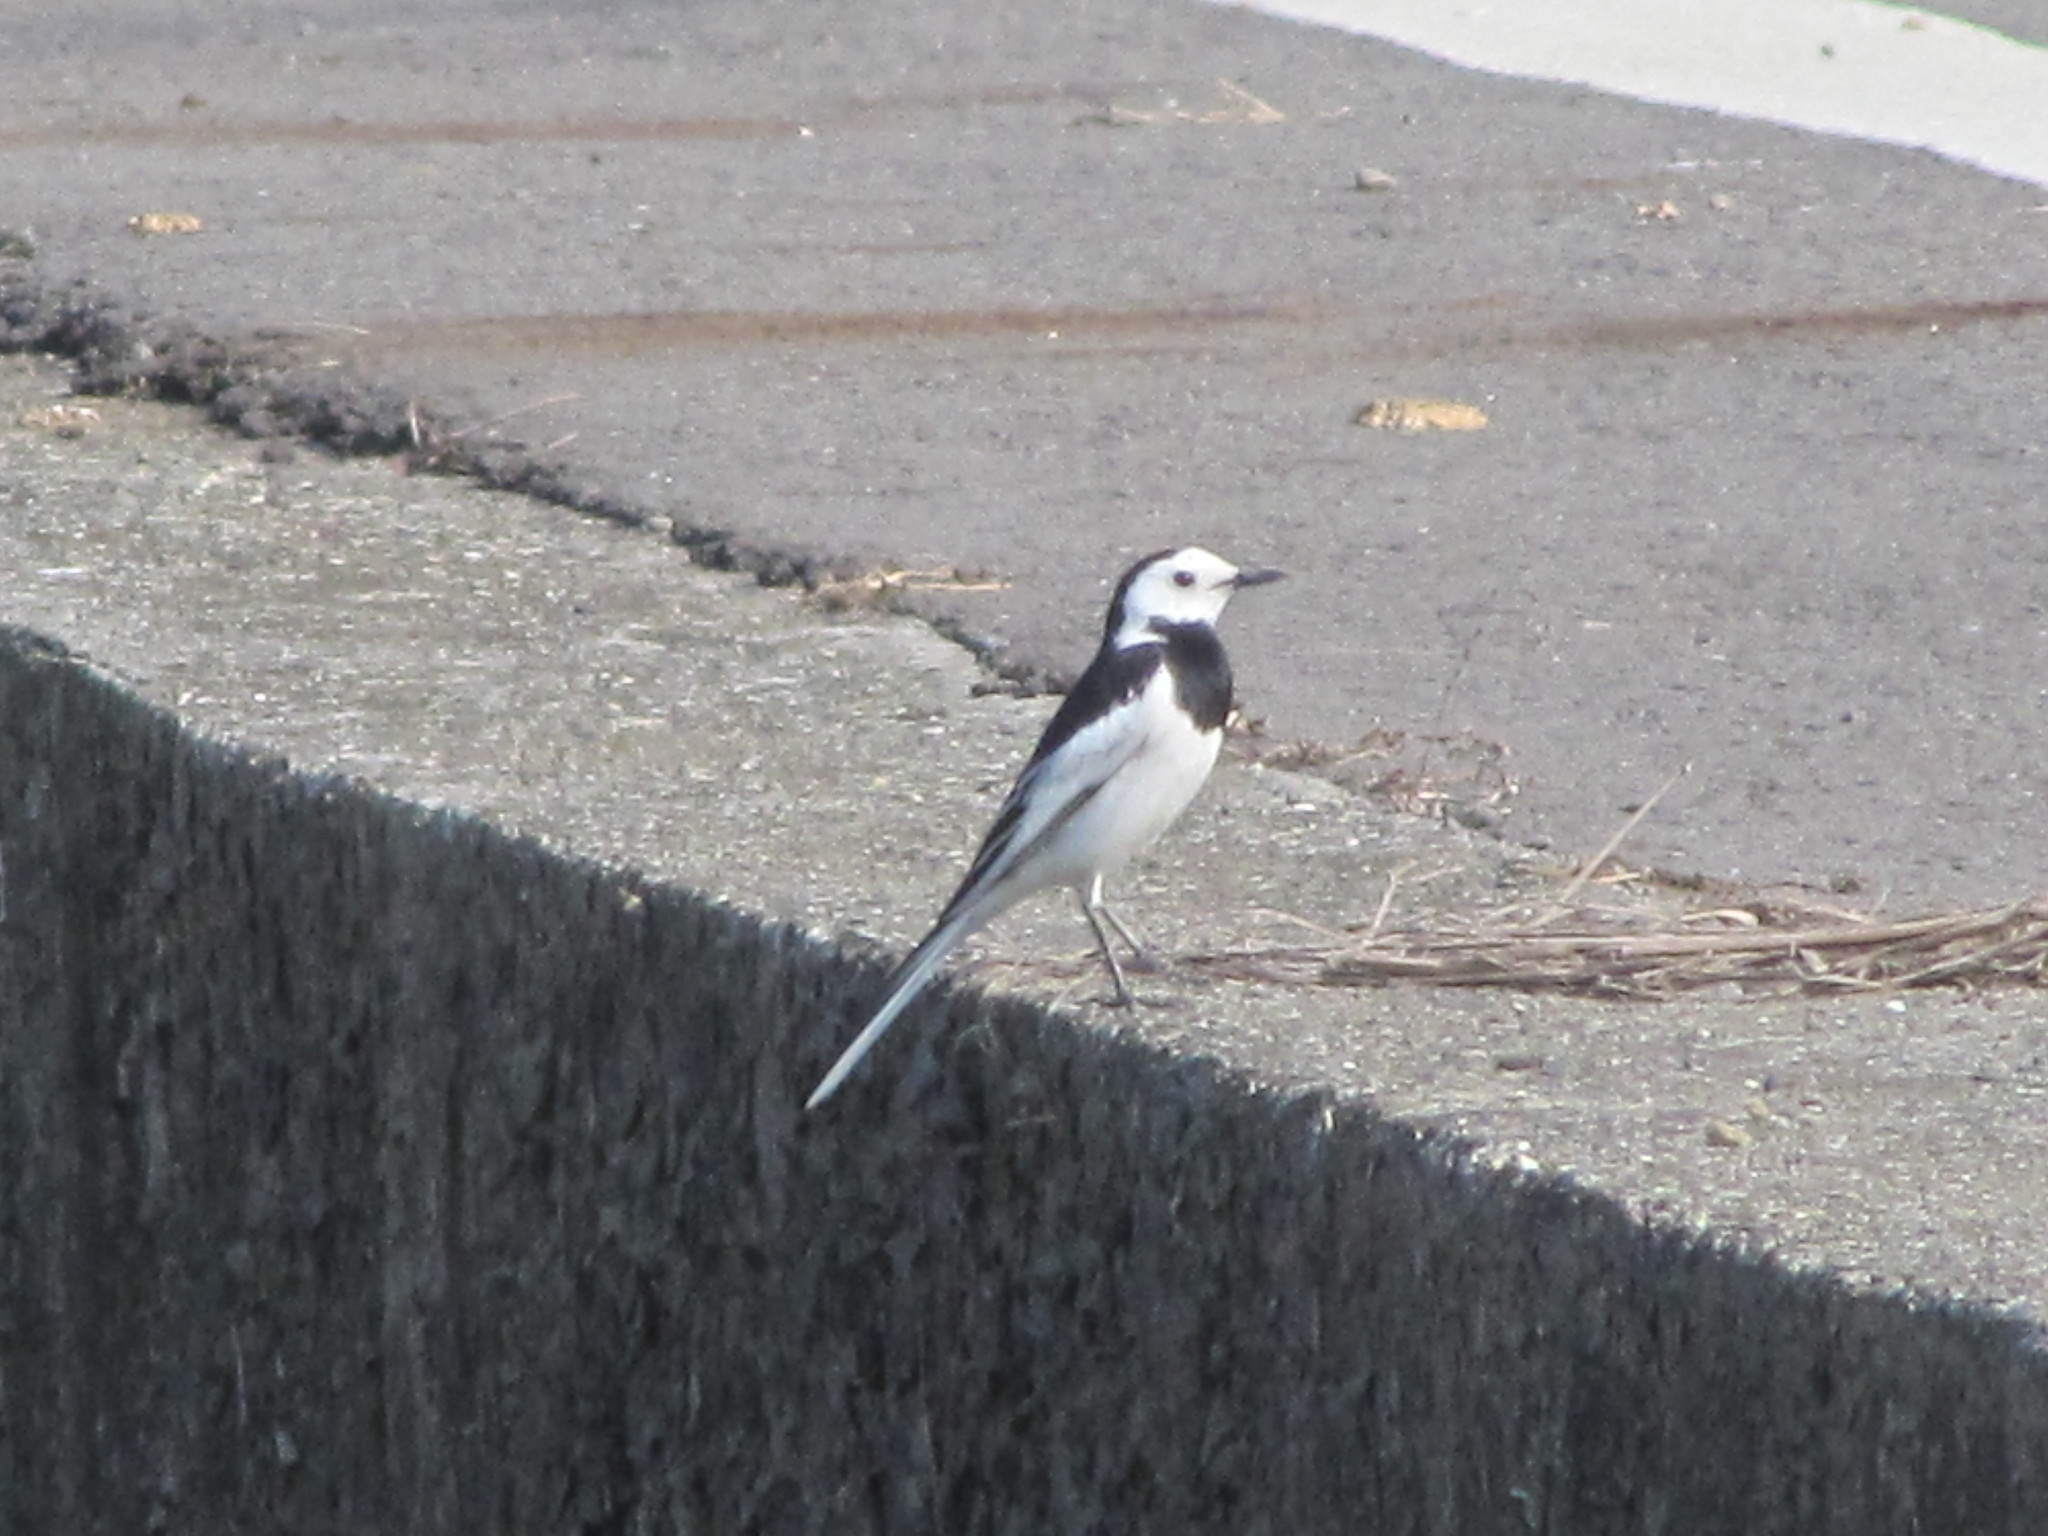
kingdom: Animalia
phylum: Chordata
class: Aves
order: Passeriformes
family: Motacillidae
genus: Motacilla
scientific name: Motacilla alba
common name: White wagtail
